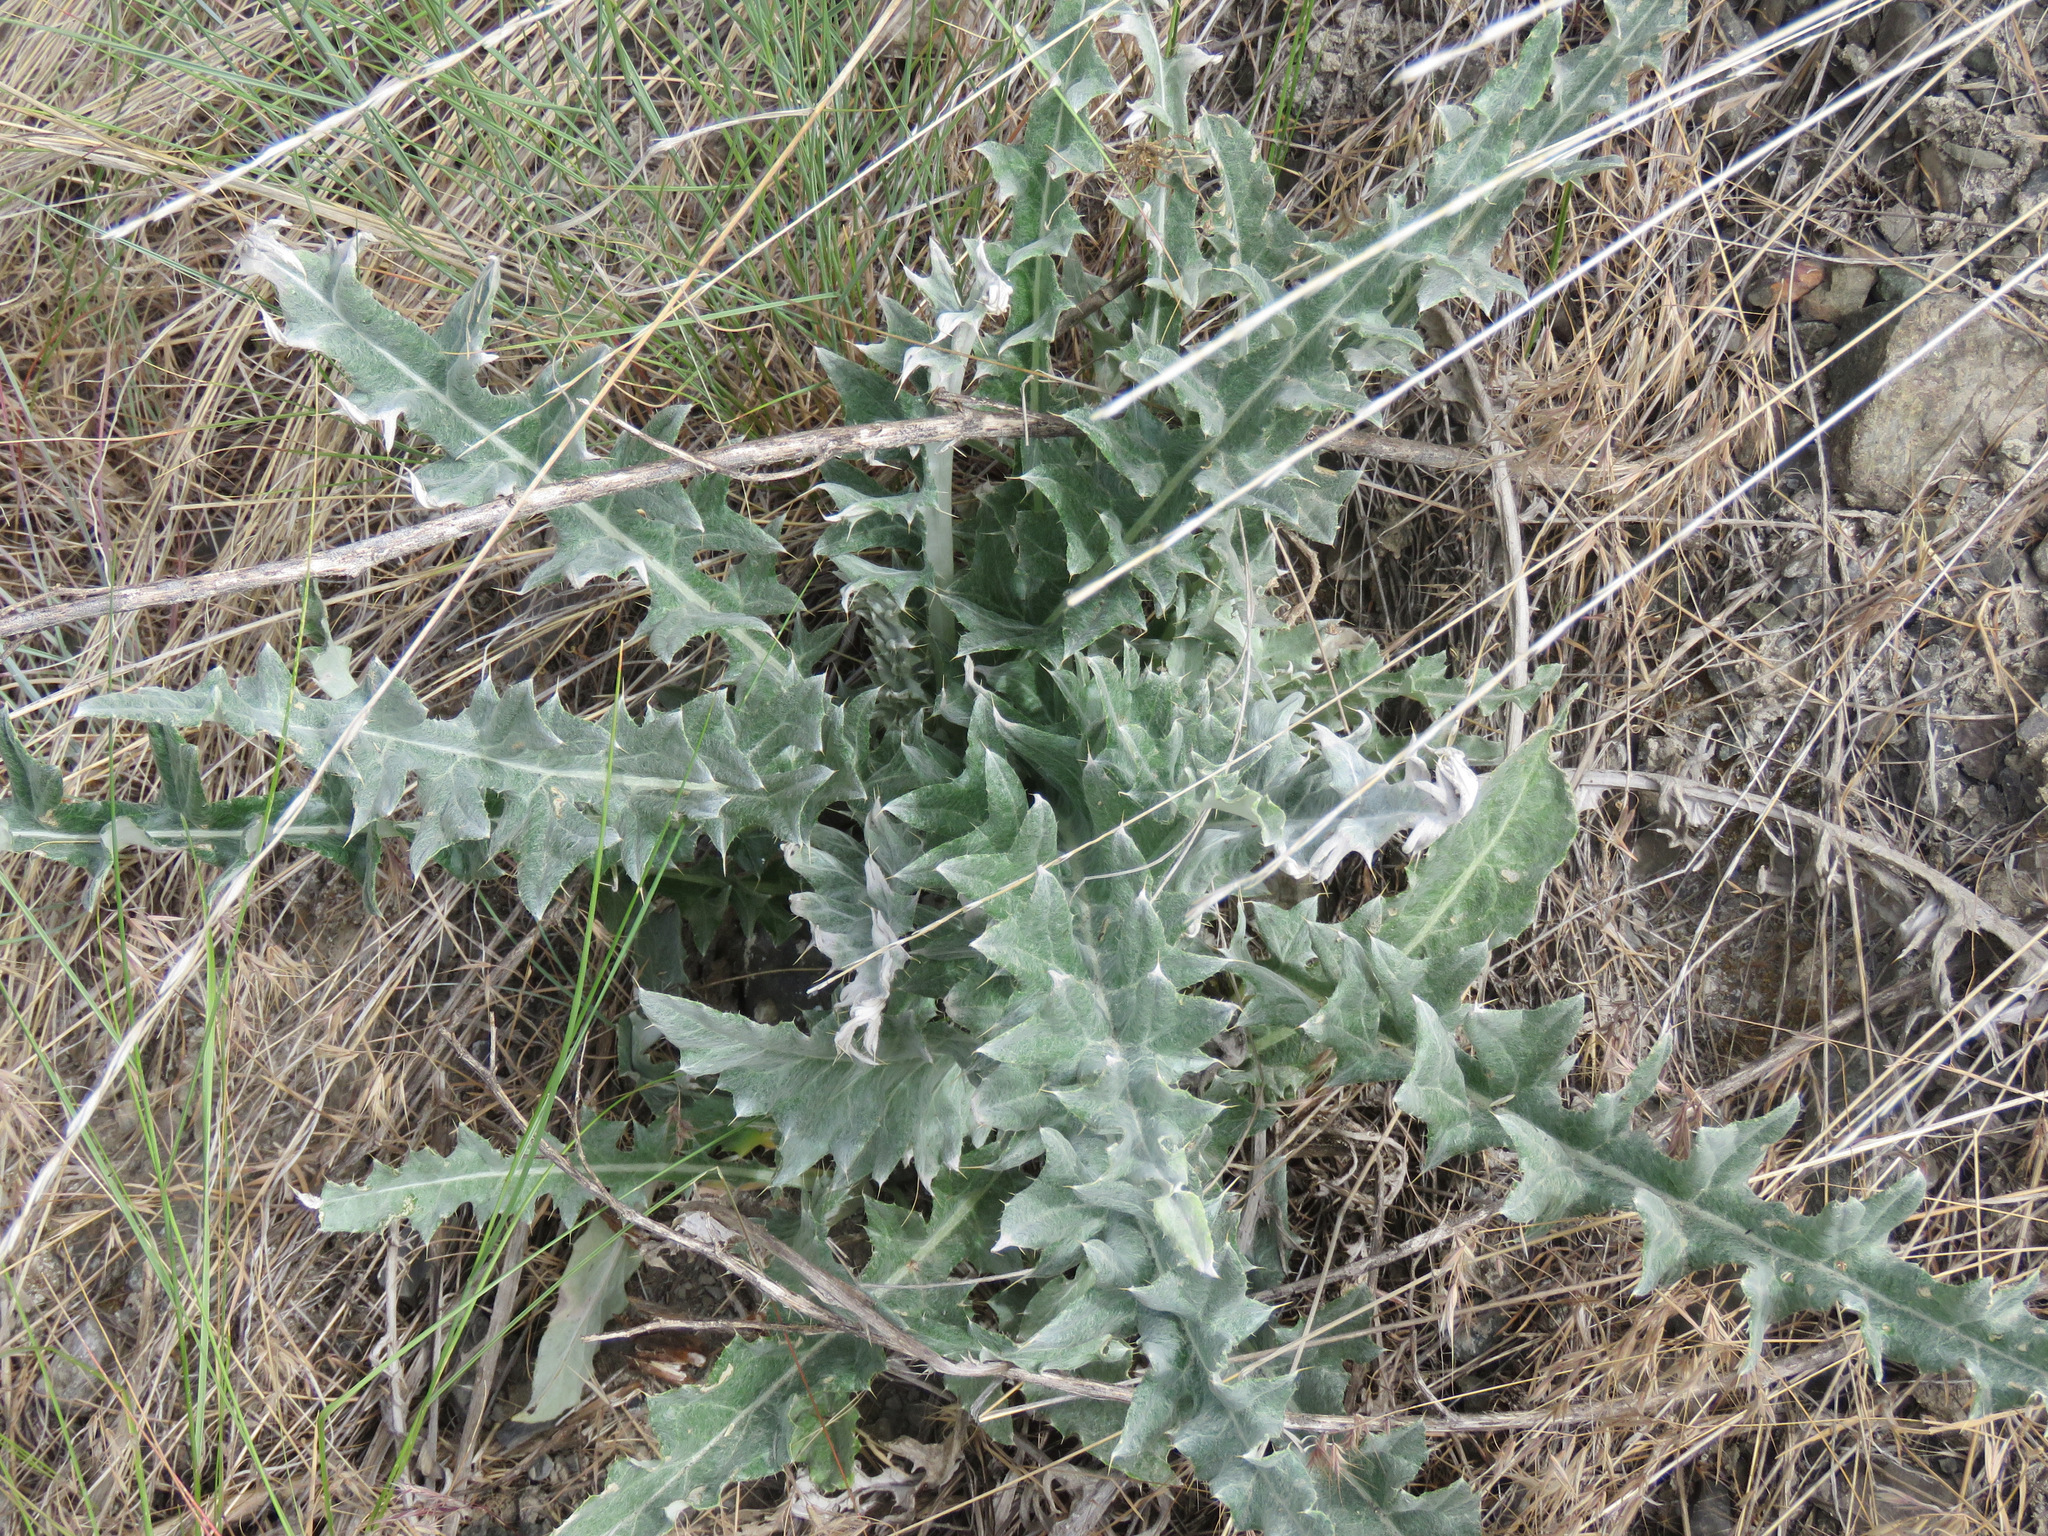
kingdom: Plantae
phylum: Tracheophyta
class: Magnoliopsida
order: Asterales
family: Asteraceae
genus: Cirsium
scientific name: Cirsium undulatum
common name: Pasture thistle
